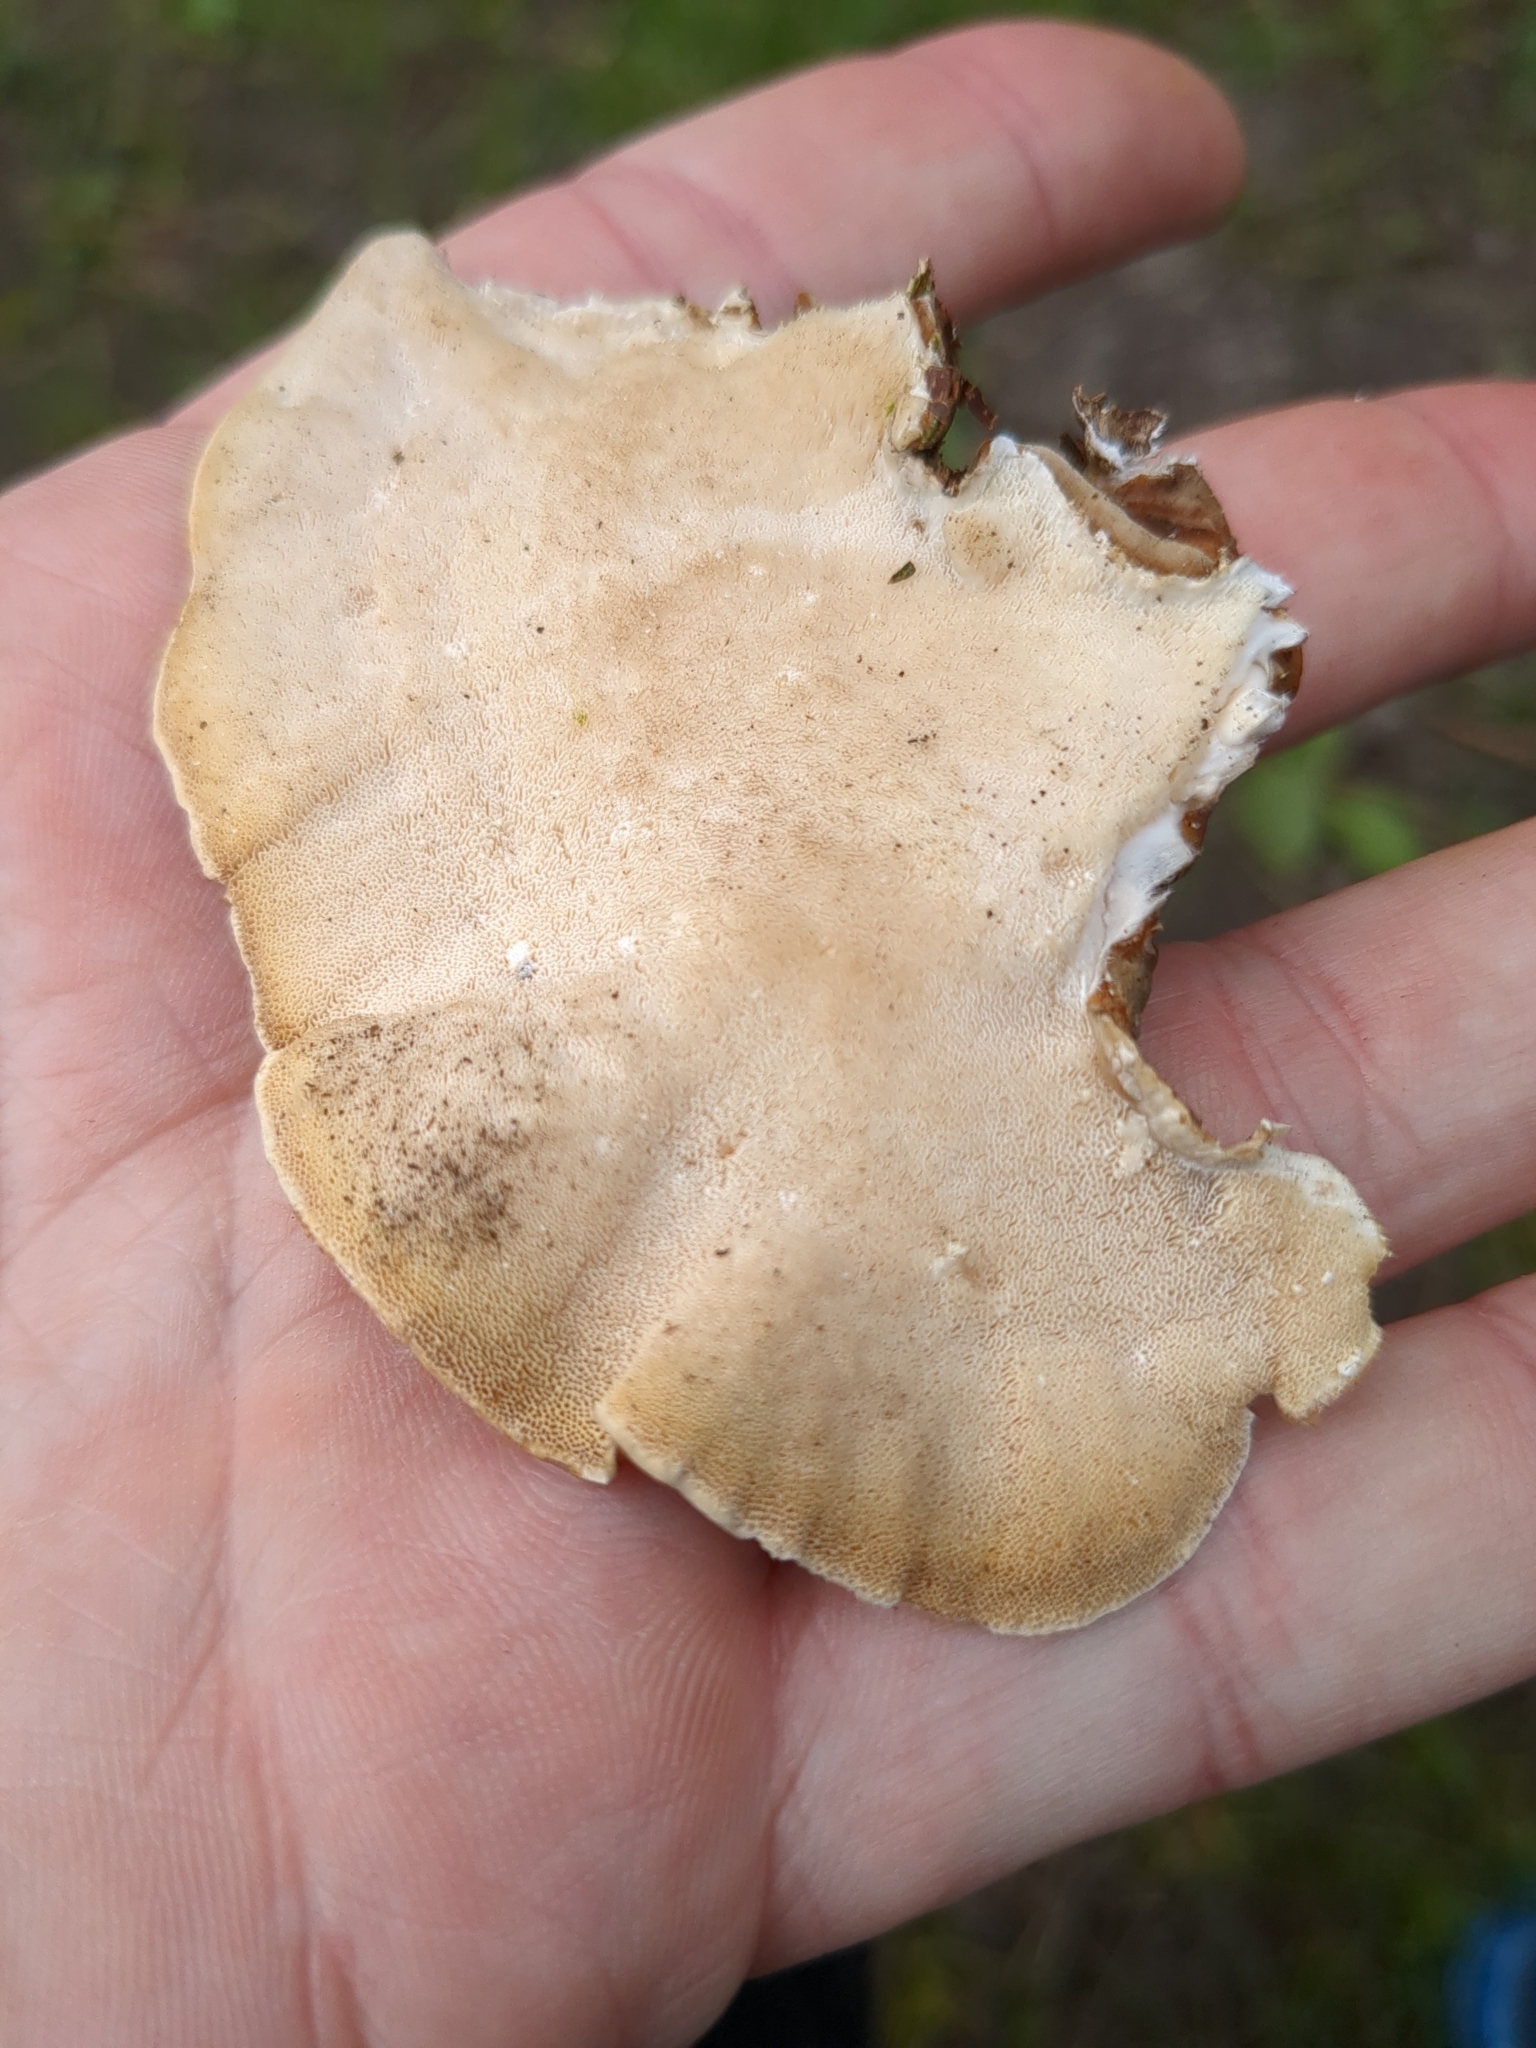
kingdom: Fungi
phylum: Basidiomycota
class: Agaricomycetes
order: Polyporales
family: Polyporaceae
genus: Trametes
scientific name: Trametes versicolor
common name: Turkeytail
